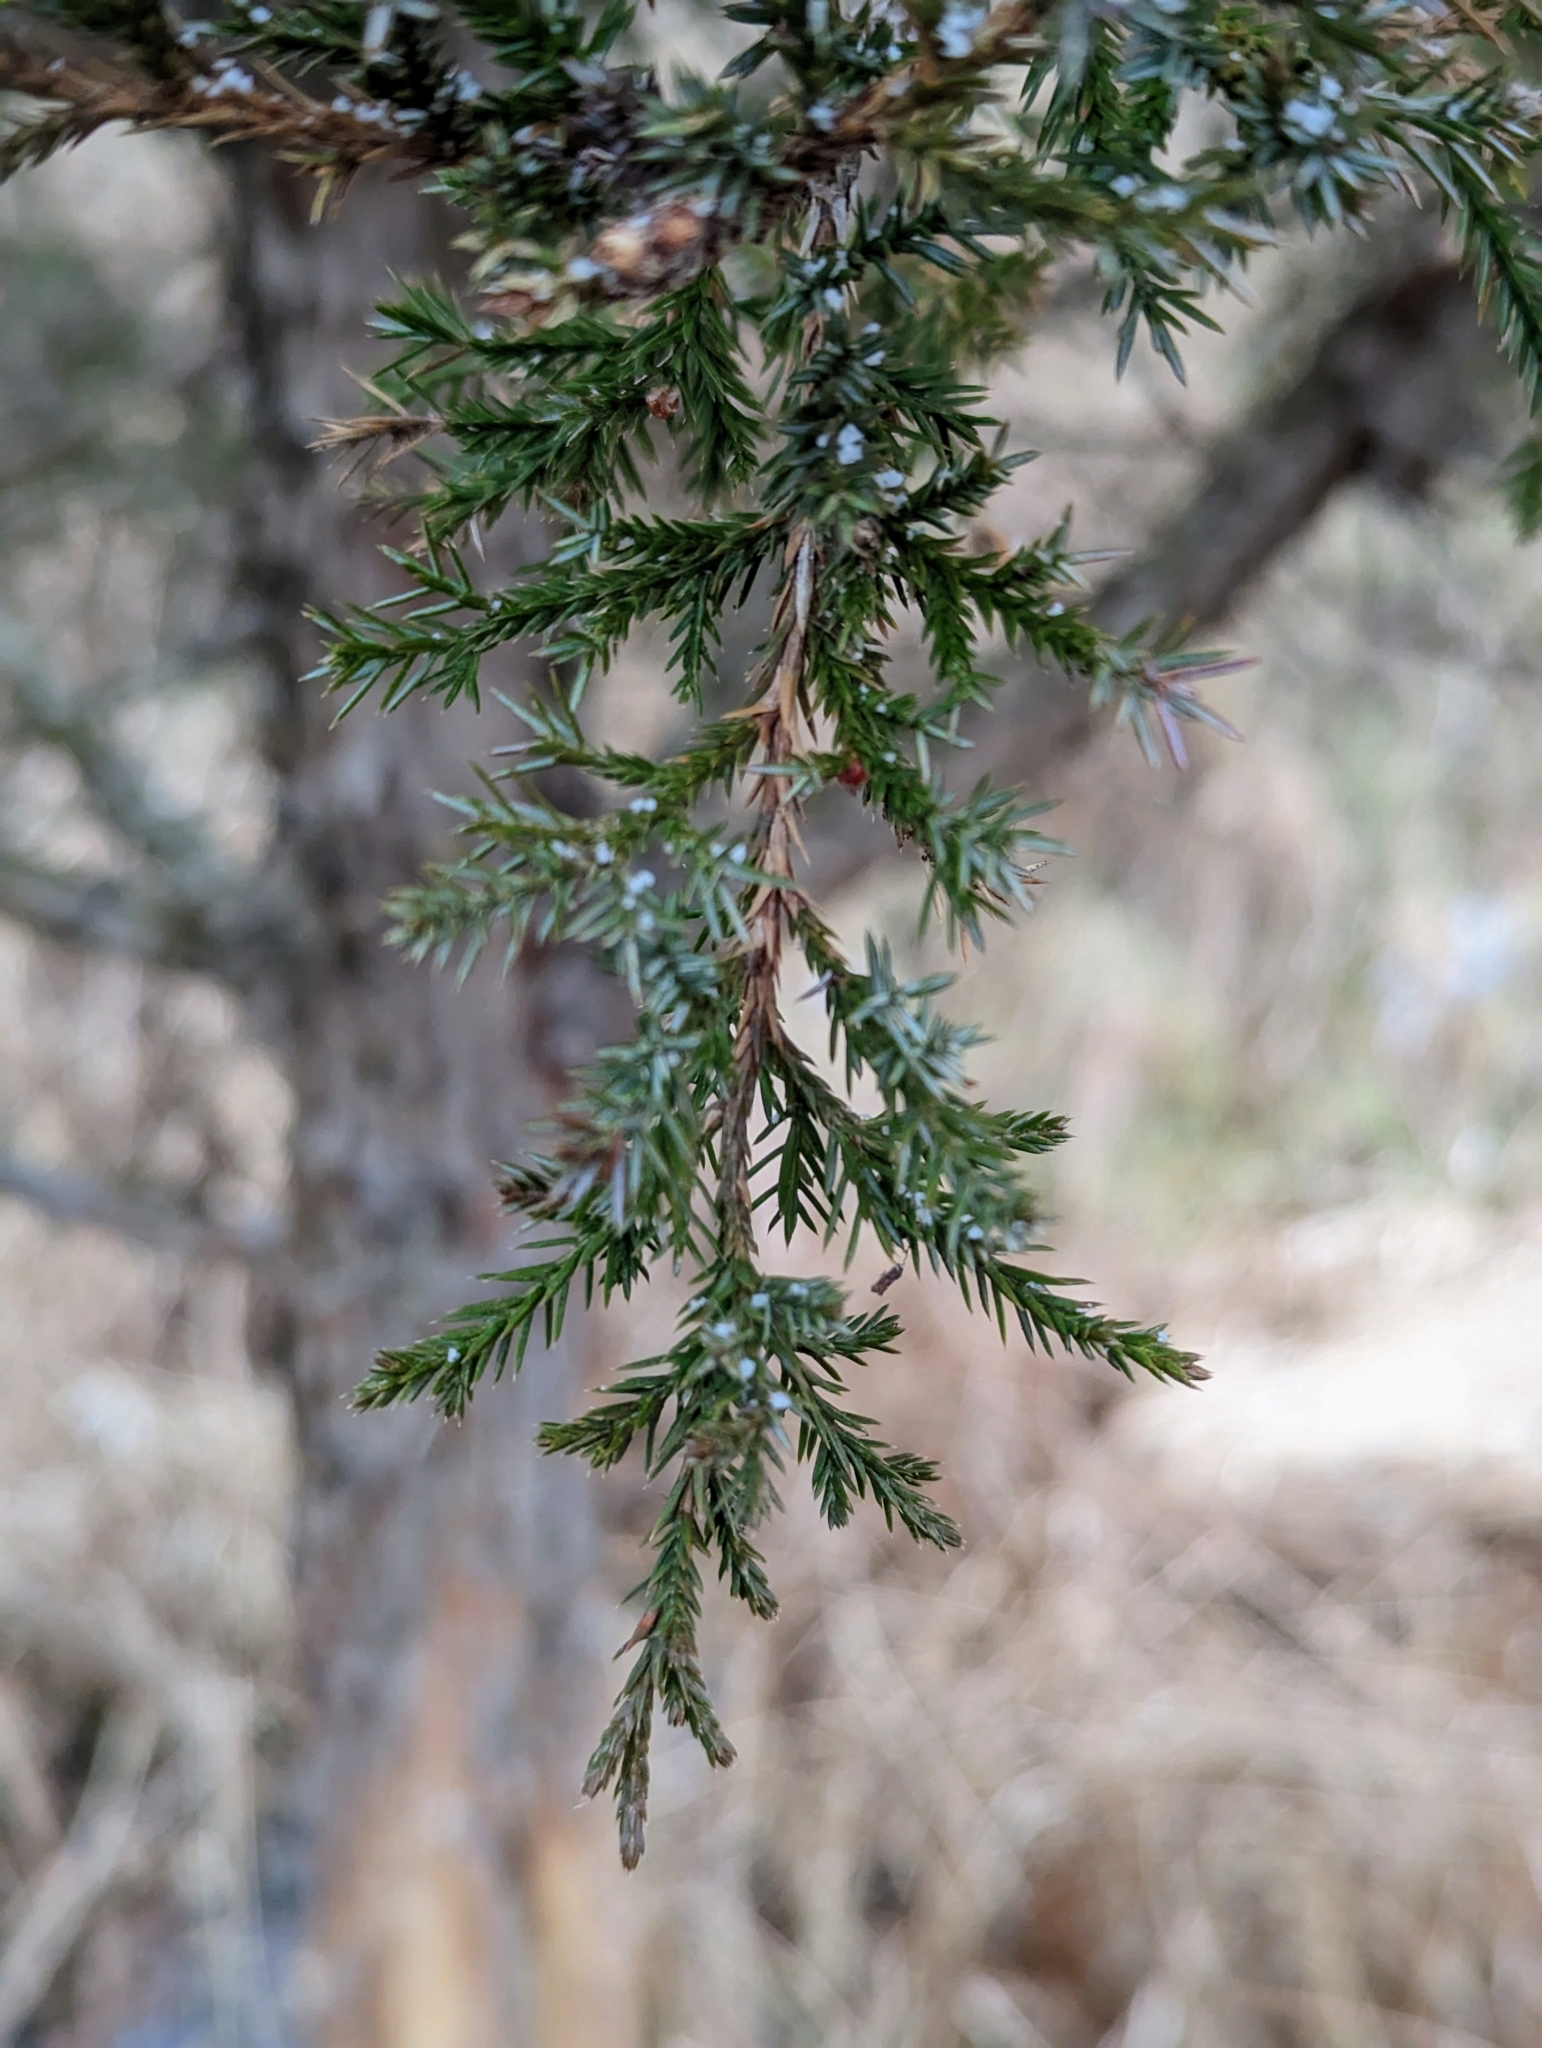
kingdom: Plantae
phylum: Tracheophyta
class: Pinopsida
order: Pinales
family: Cupressaceae
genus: Juniperus
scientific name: Juniperus virginiana
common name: Red juniper
